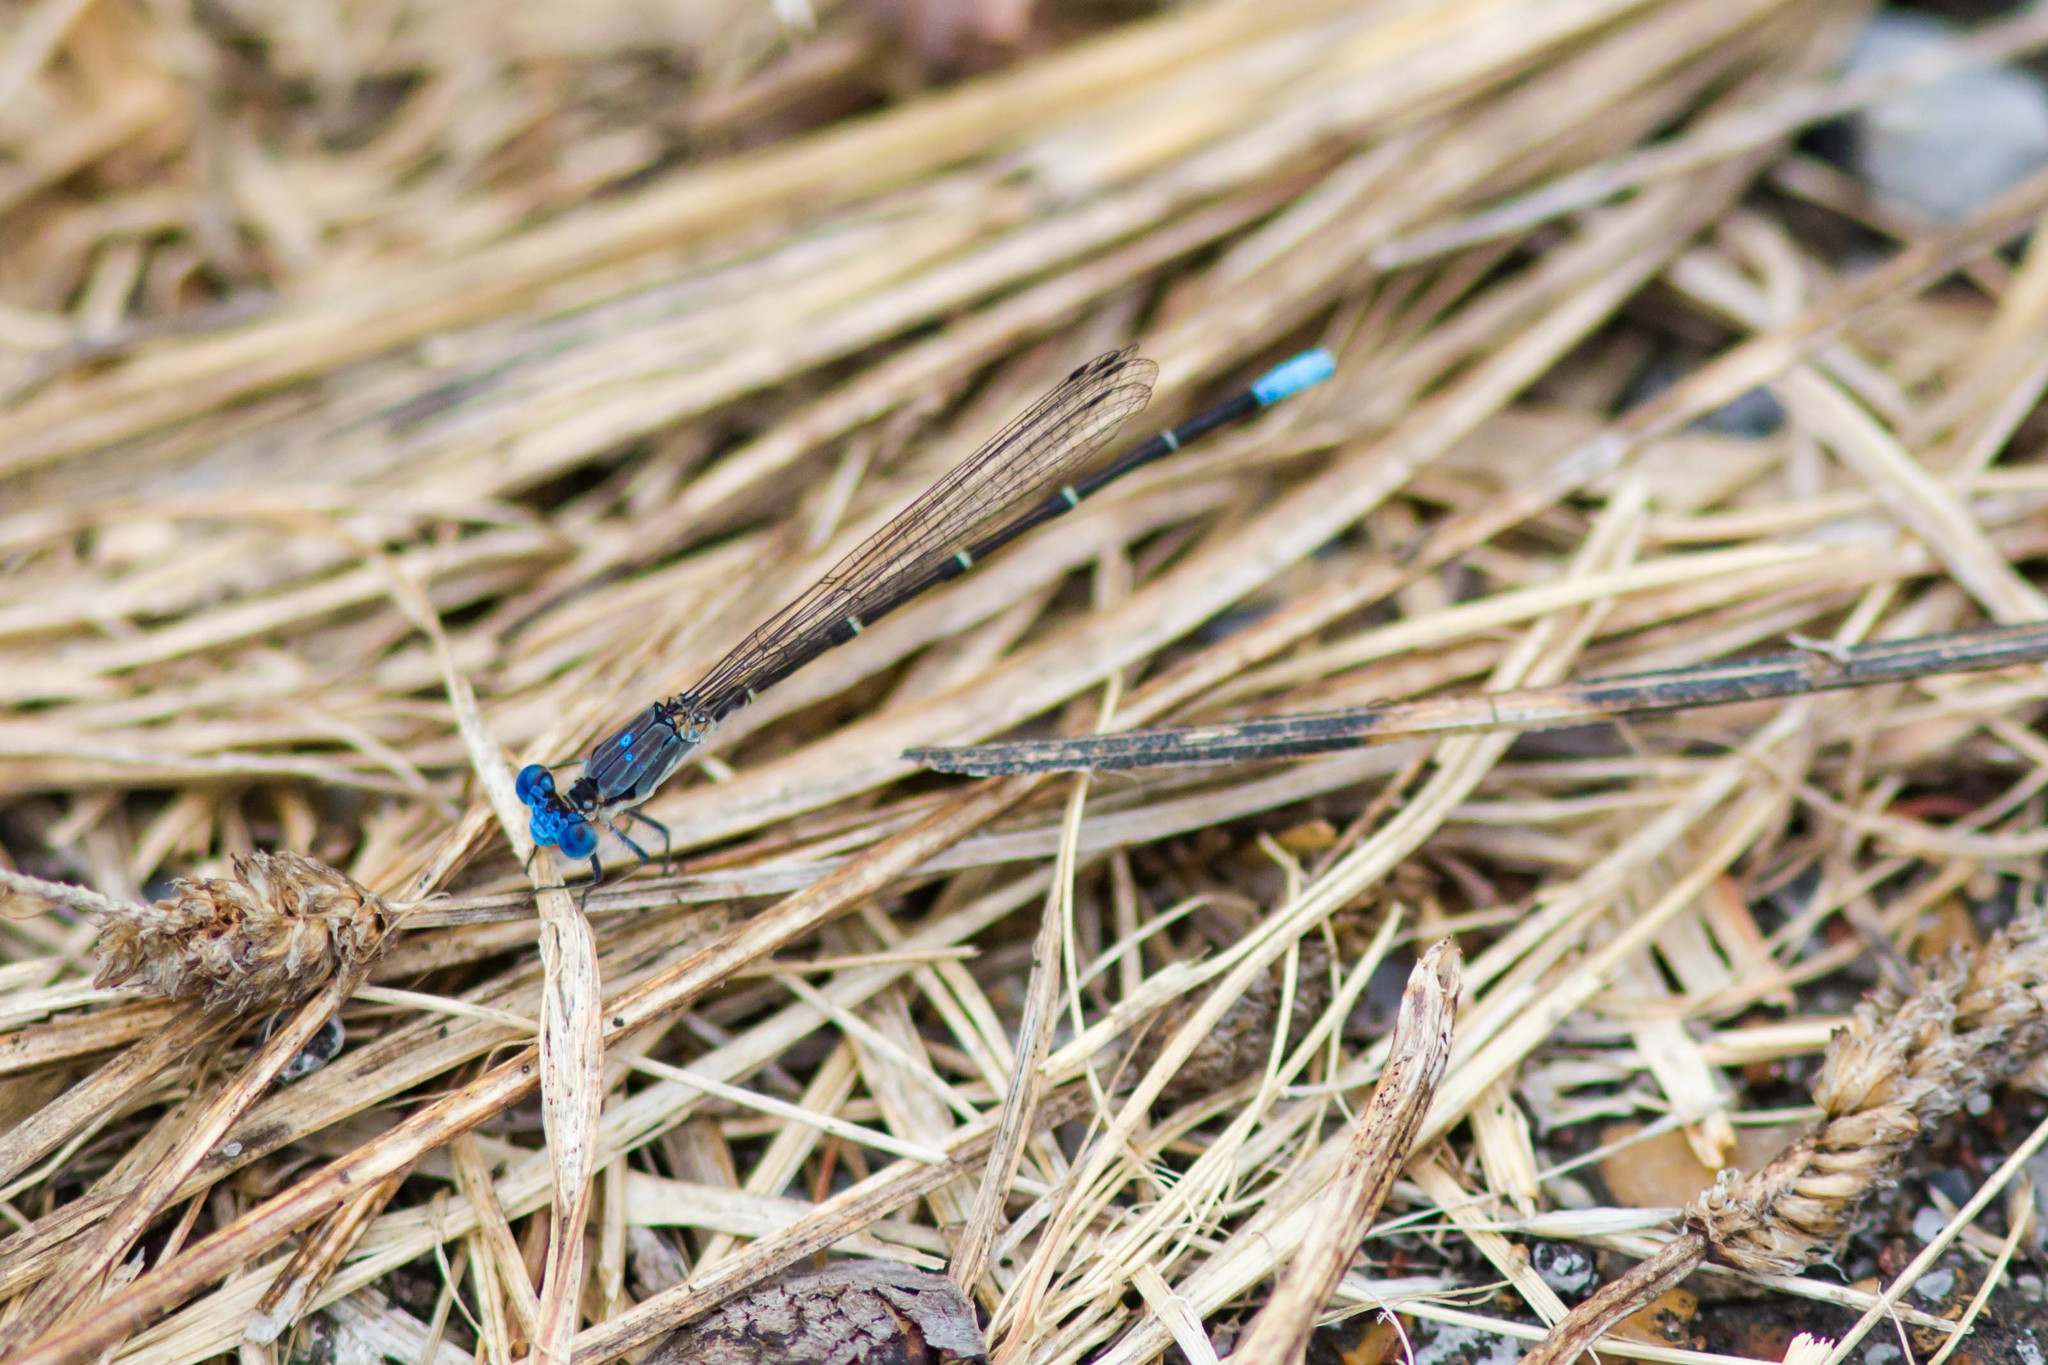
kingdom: Animalia
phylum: Arthropoda
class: Insecta
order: Odonata
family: Coenagrionidae
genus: Argia
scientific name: Argia apicalis
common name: Blue-fronted dancer
